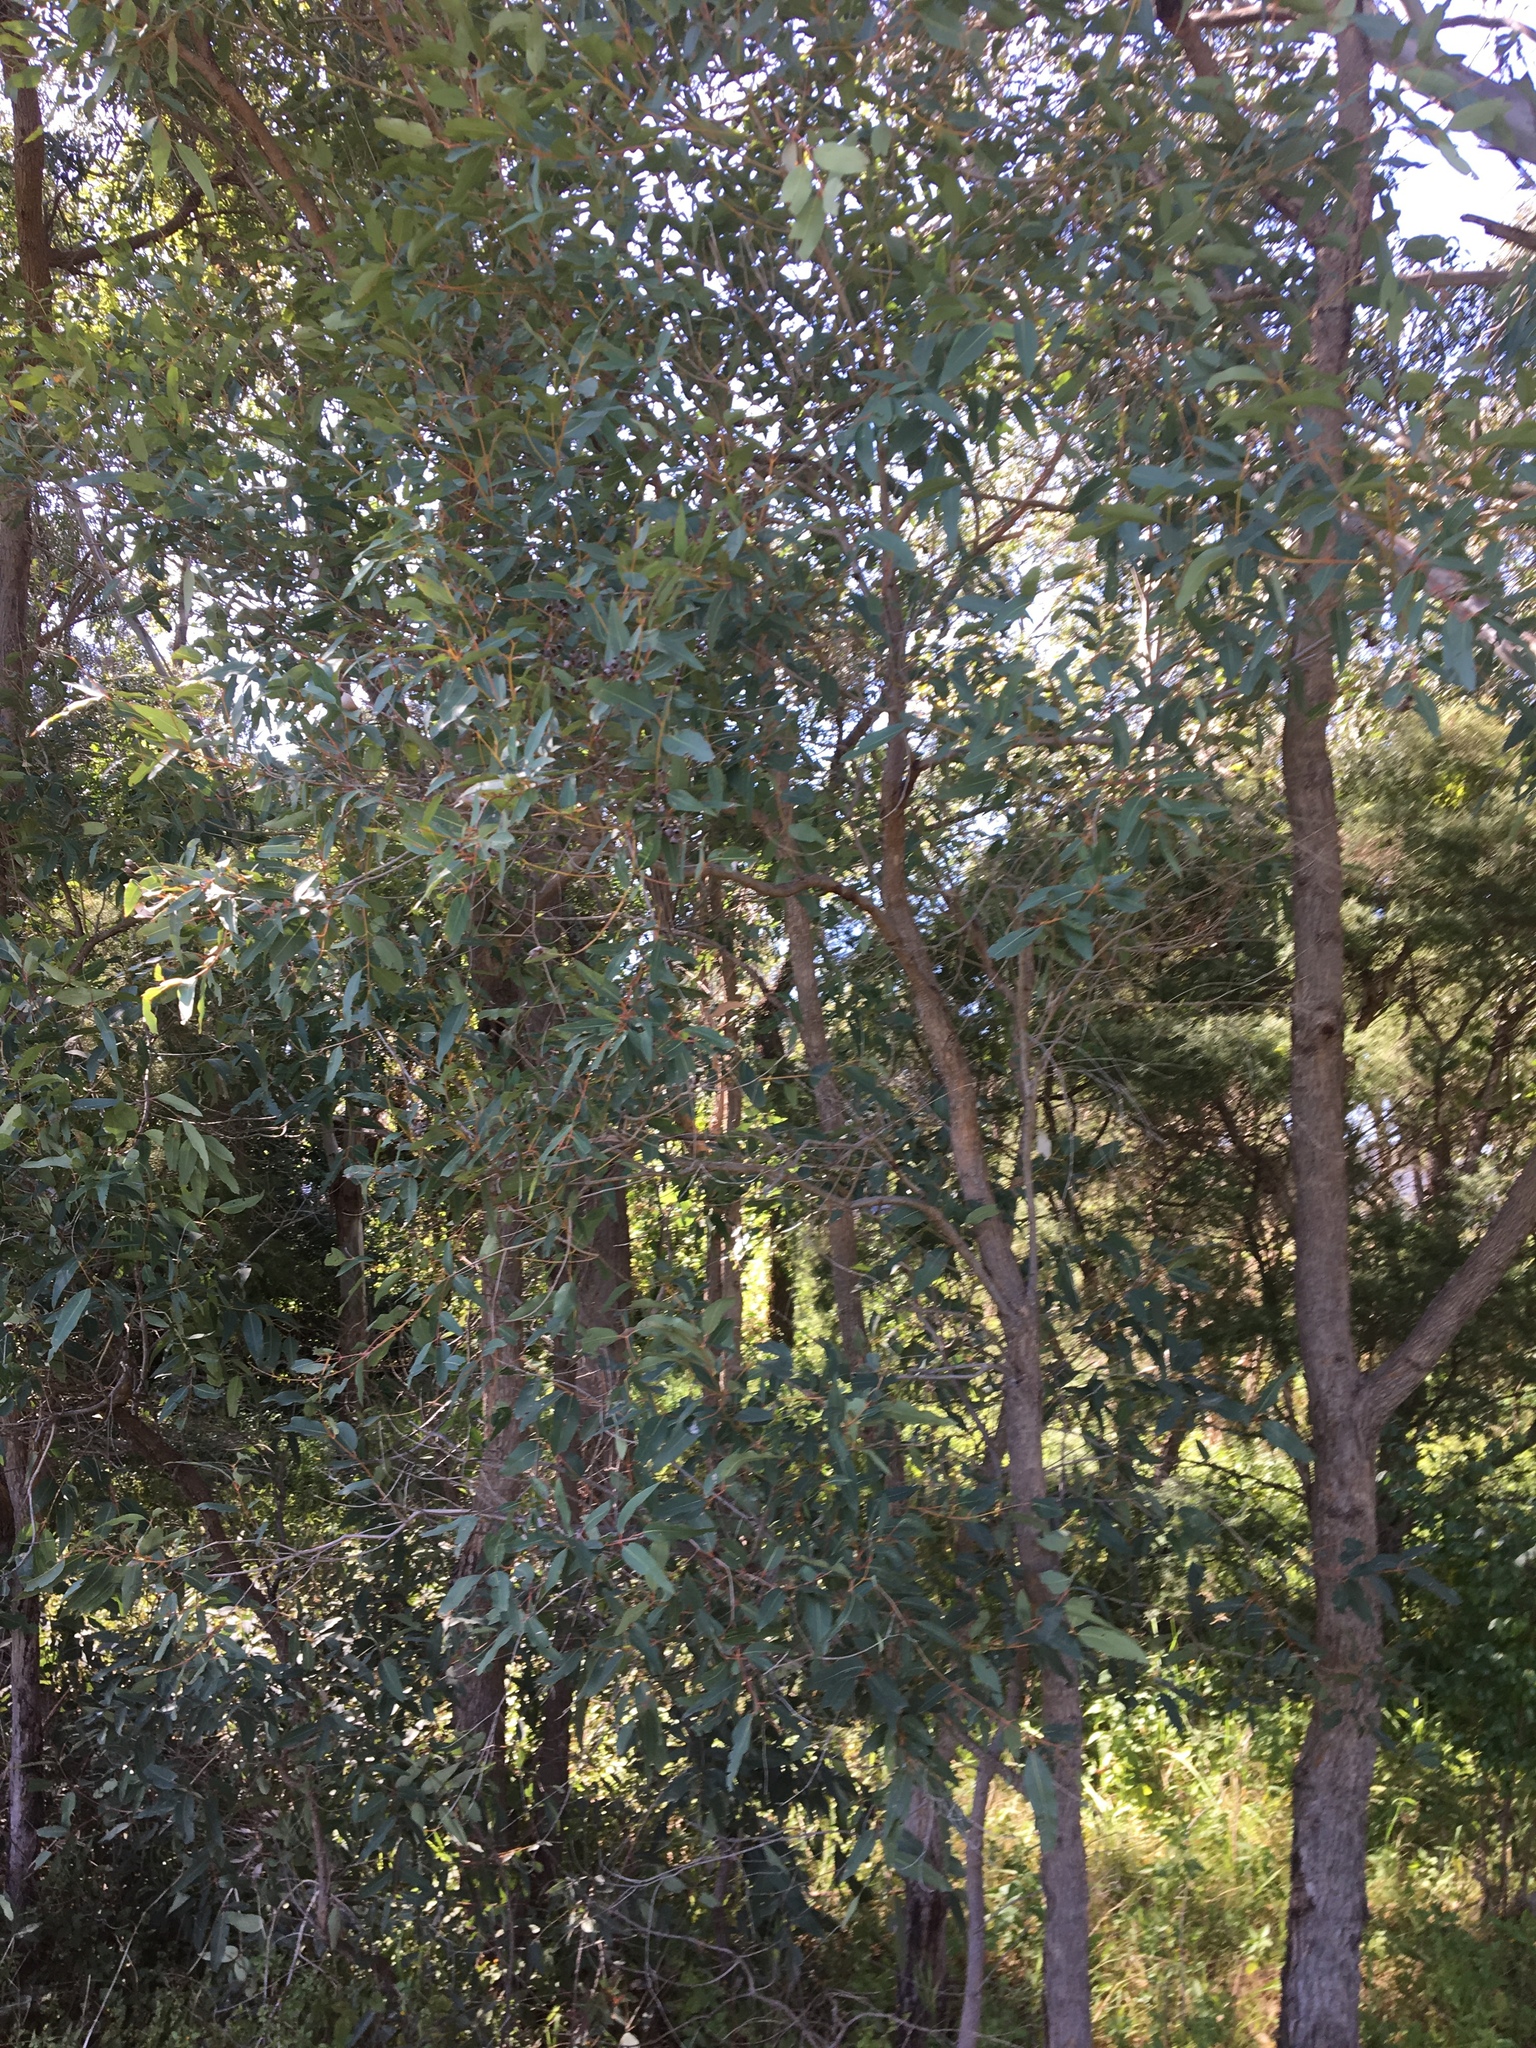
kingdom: Plantae
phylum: Tracheophyta
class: Magnoliopsida
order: Myrtales
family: Myrtaceae
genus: Angophora
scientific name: Angophora floribunda
